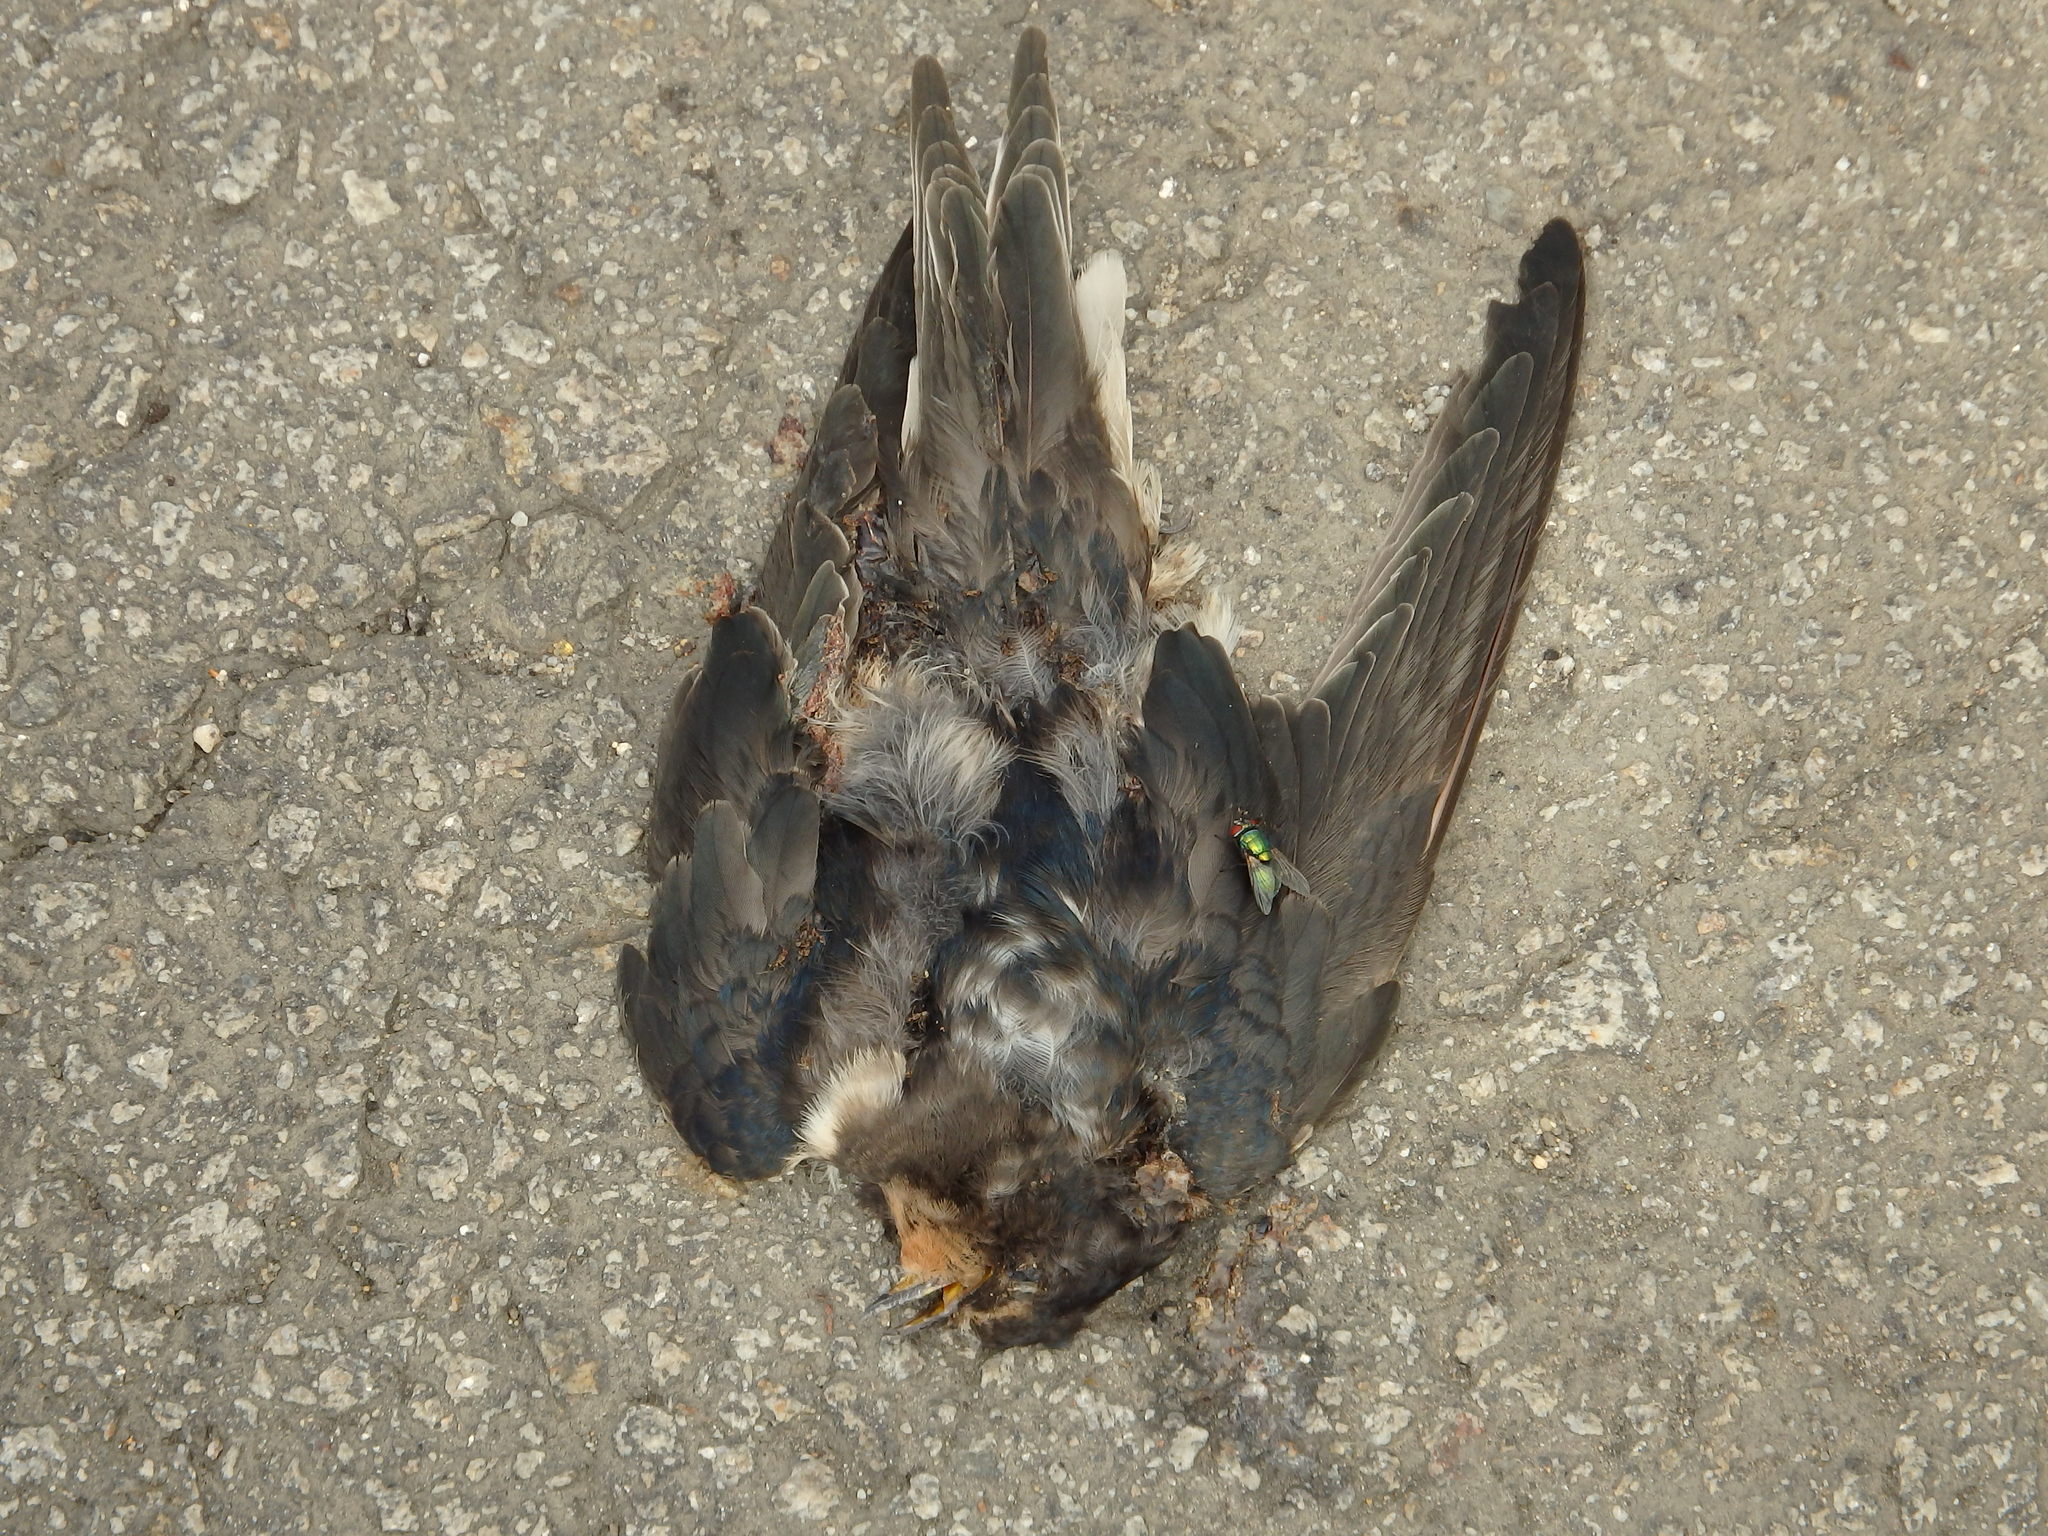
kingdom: Animalia
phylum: Chordata
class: Aves
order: Passeriformes
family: Hirundinidae
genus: Hirundo
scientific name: Hirundo rustica
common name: Barn swallow
